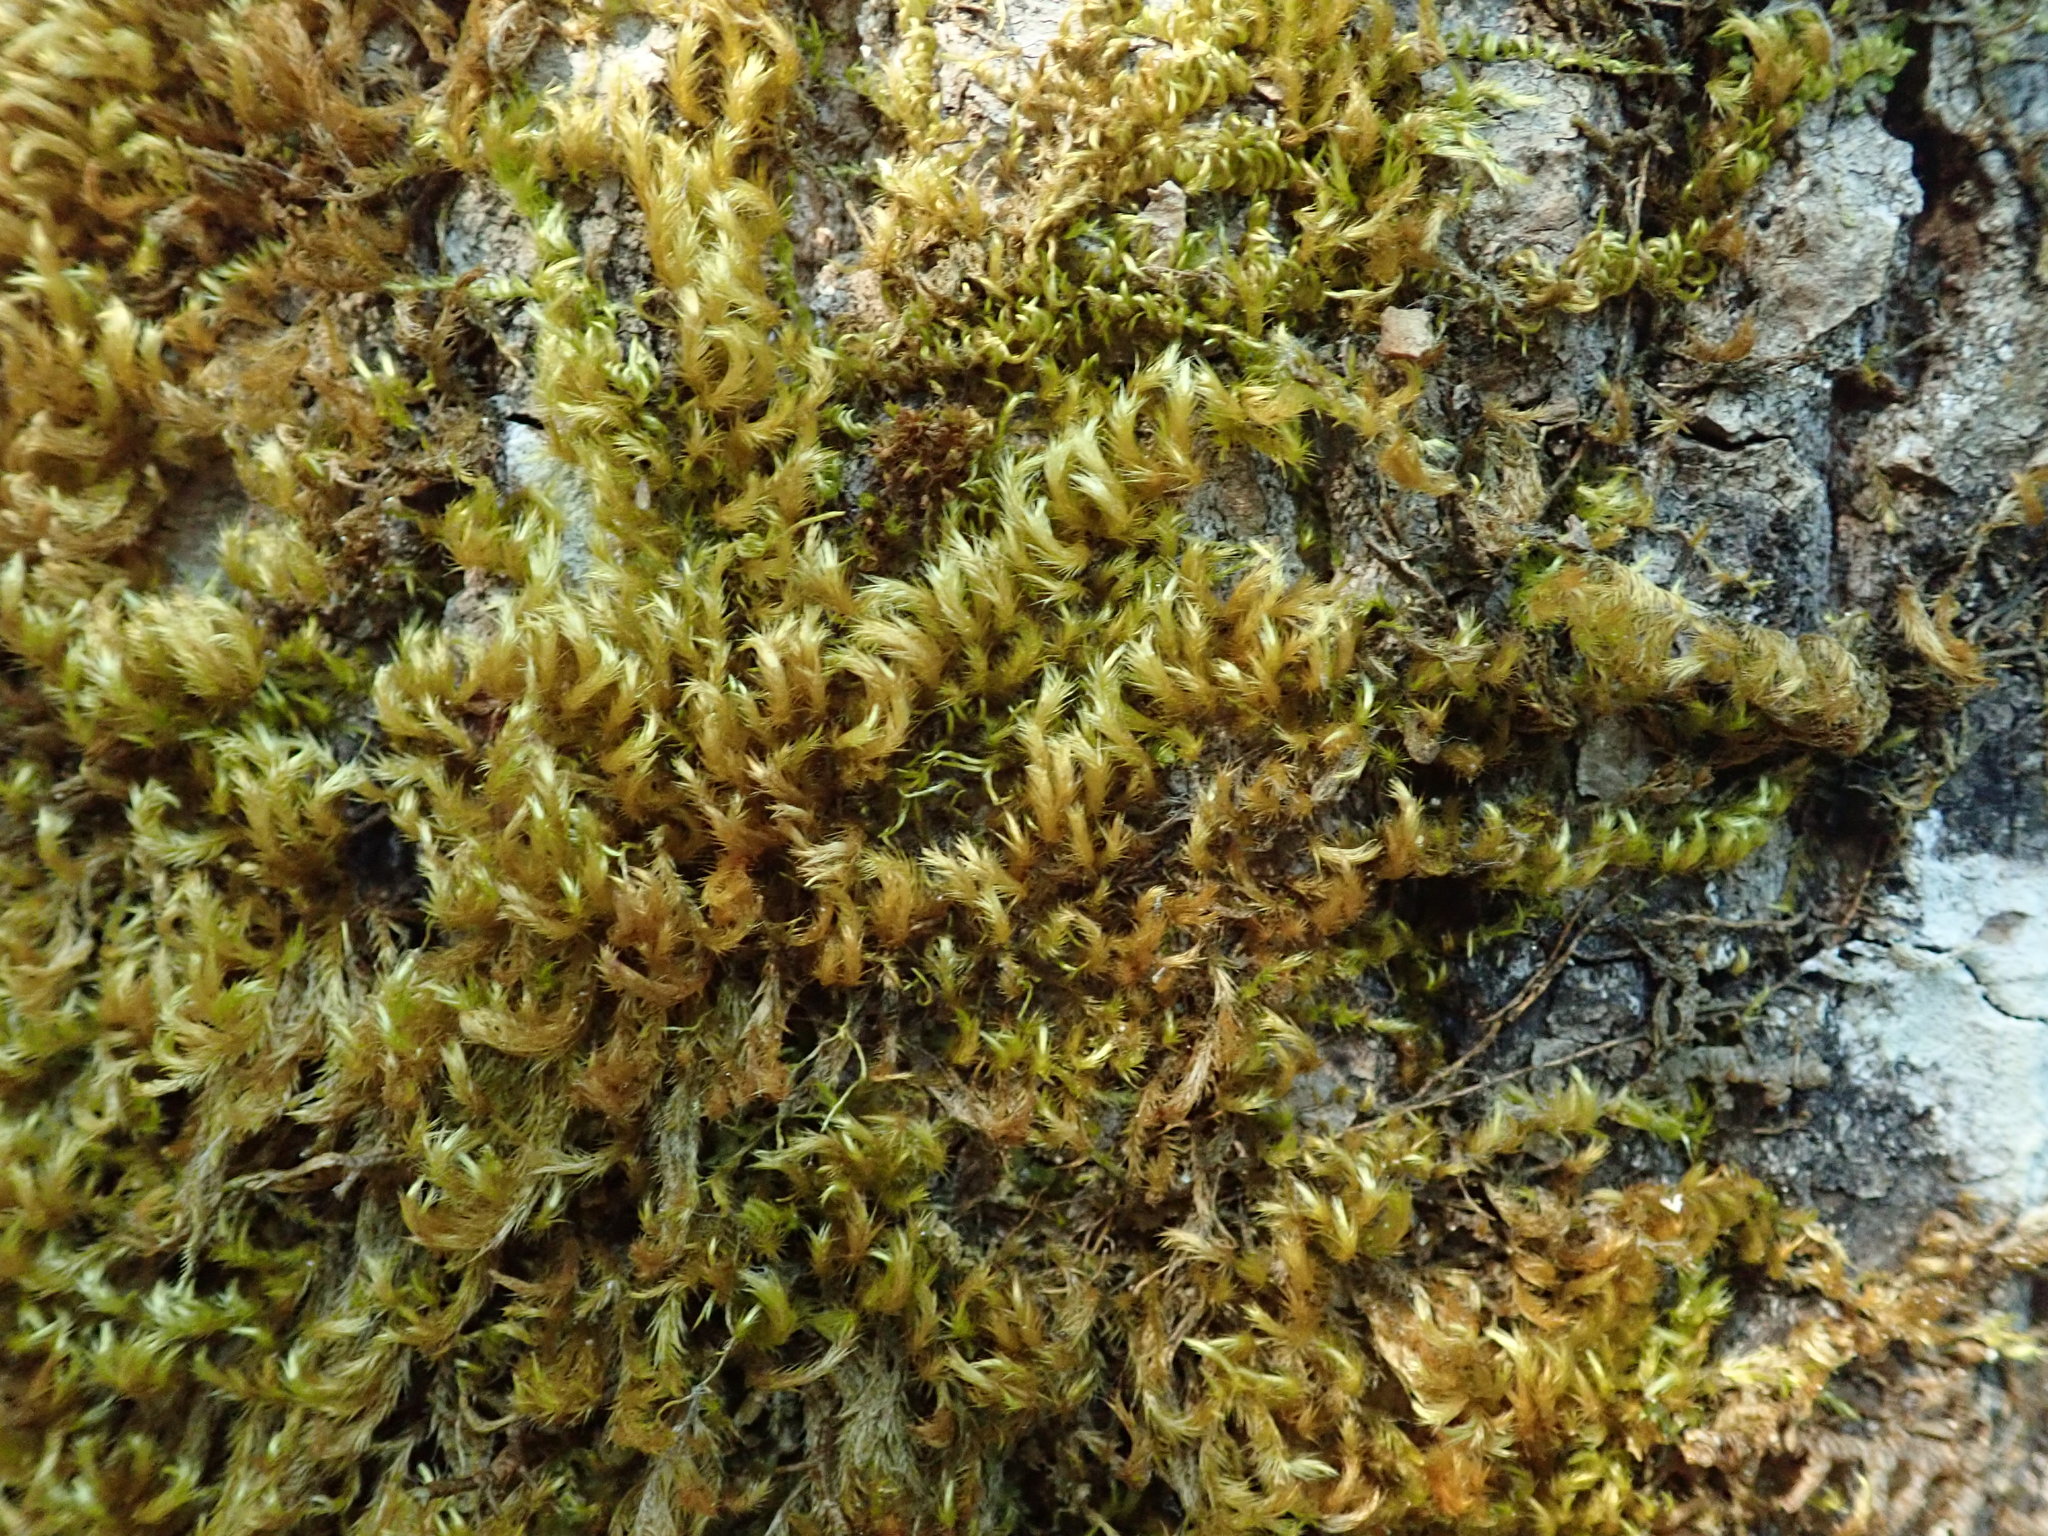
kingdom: Plantae
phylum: Bryophyta
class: Bryopsida
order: Hypnales
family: Brachytheciaceae
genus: Homalothecium
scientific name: Homalothecium fulgescens
